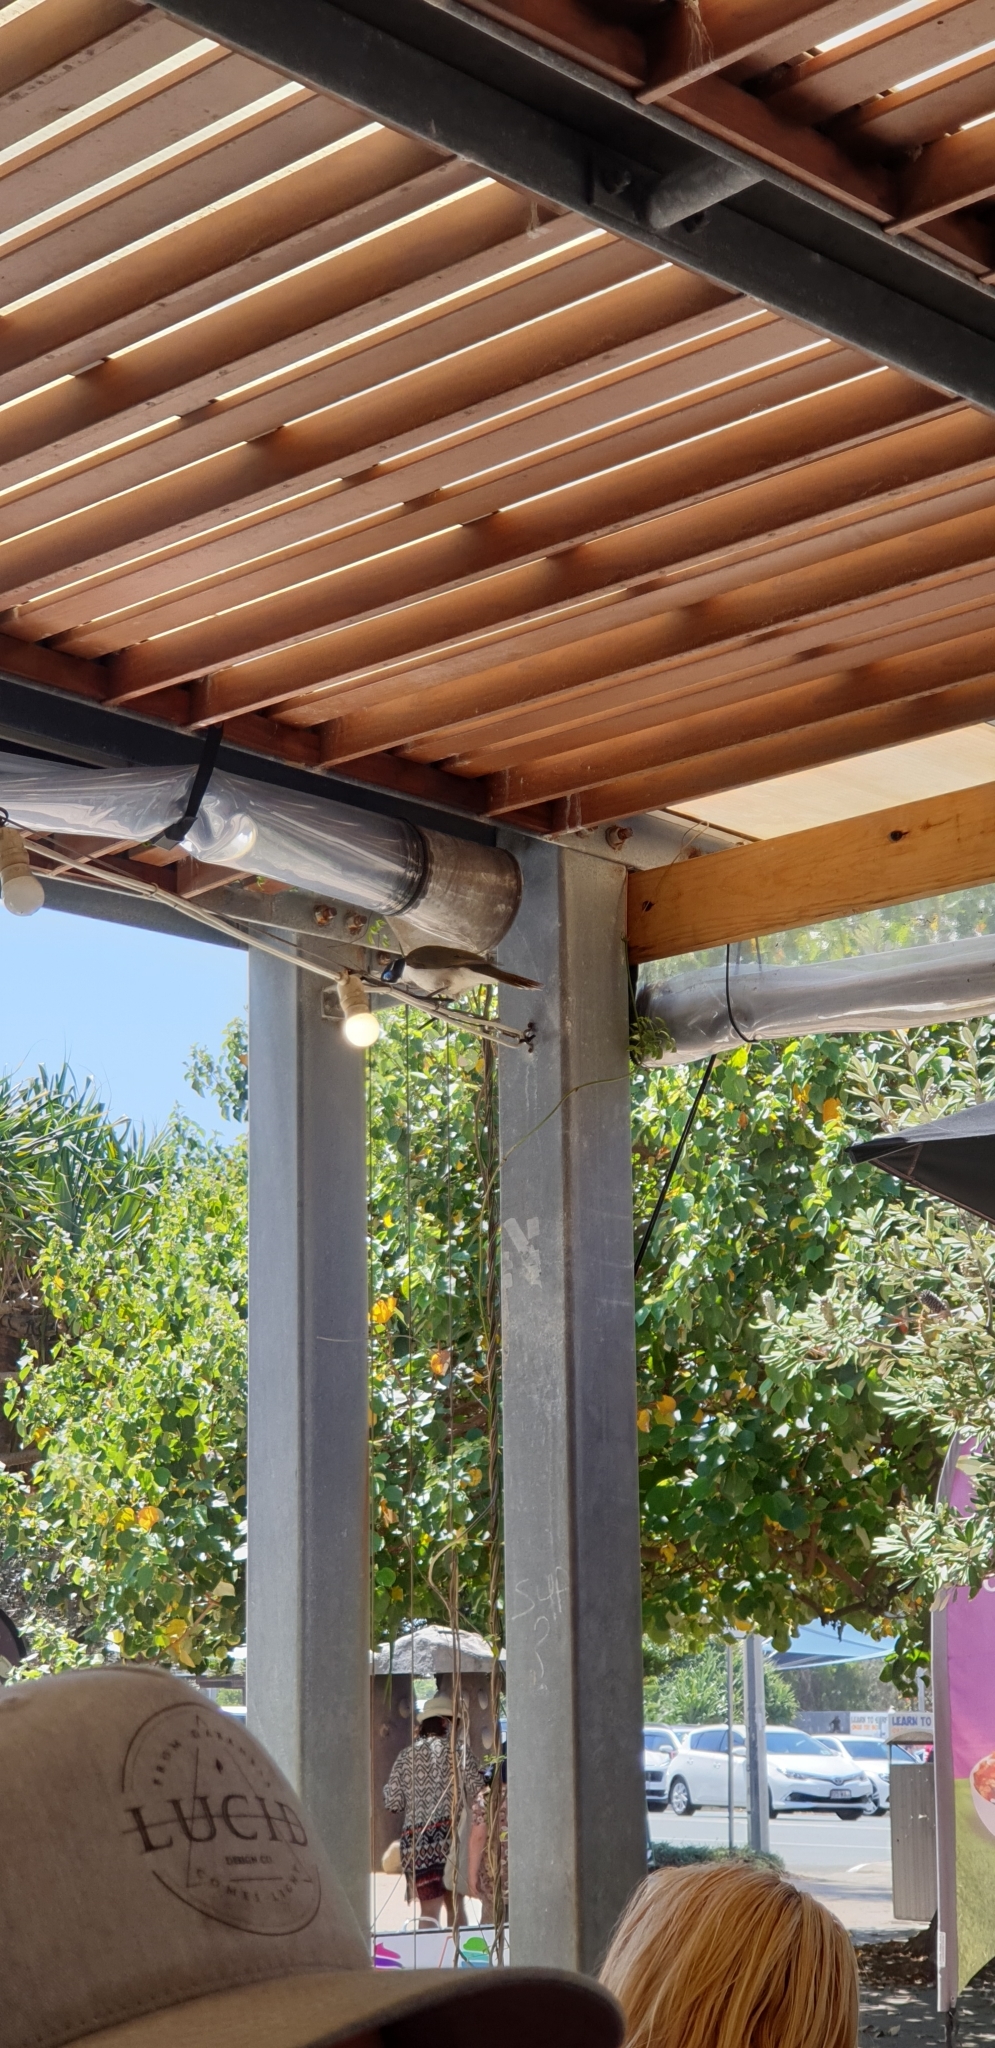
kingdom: Animalia
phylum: Chordata
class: Aves
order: Passeriformes
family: Meliphagidae
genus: Entomyzon
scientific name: Entomyzon cyanotis
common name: Blue-faced honeyeater
